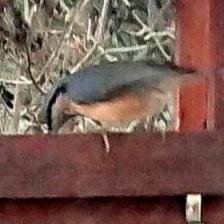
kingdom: Animalia
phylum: Chordata
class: Aves
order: Passeriformes
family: Sittidae
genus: Sitta
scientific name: Sitta europaea
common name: Eurasian nuthatch
